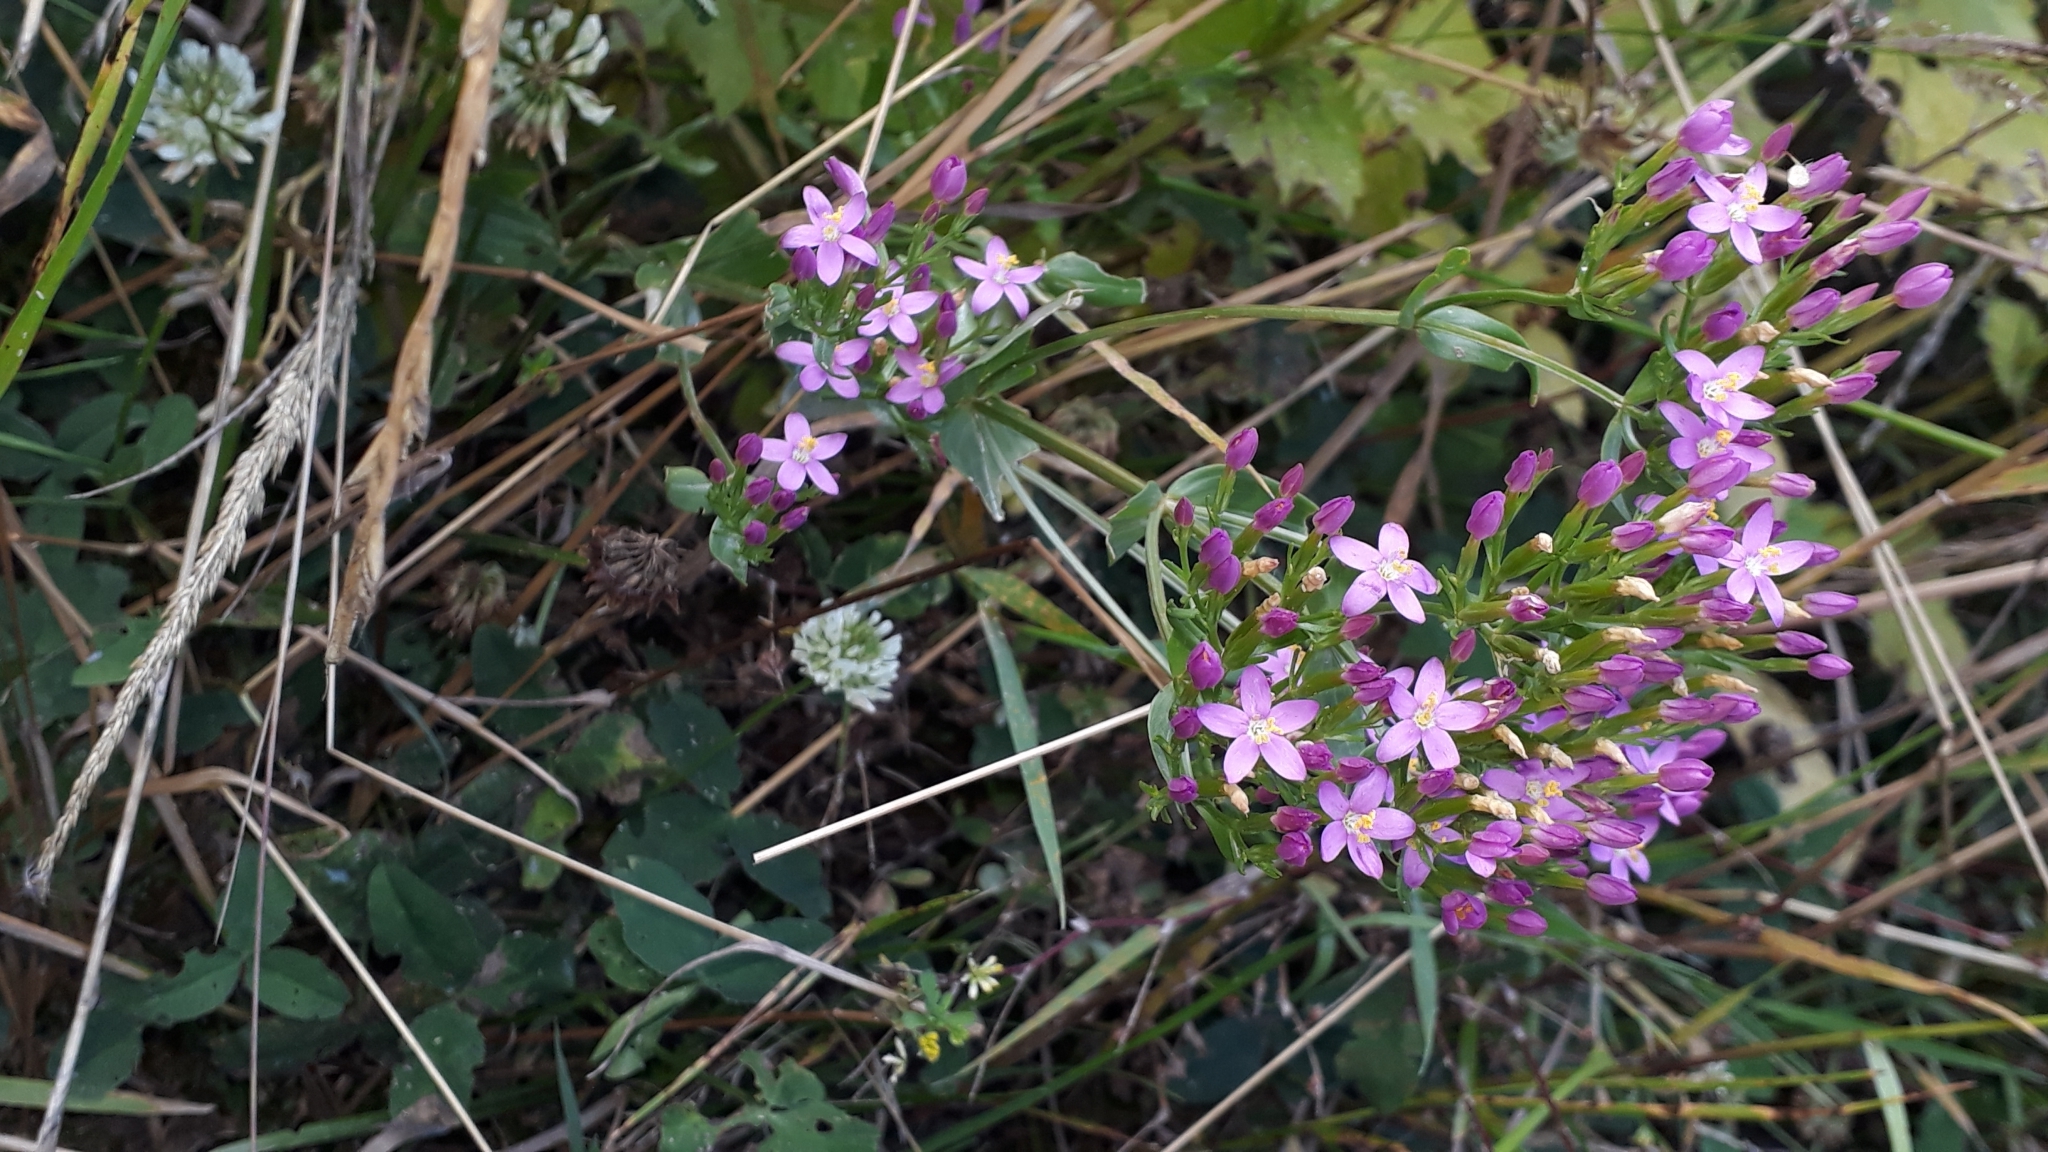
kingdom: Plantae
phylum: Tracheophyta
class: Magnoliopsida
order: Gentianales
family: Gentianaceae
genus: Centaurium
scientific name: Centaurium erythraea
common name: Common centaury
